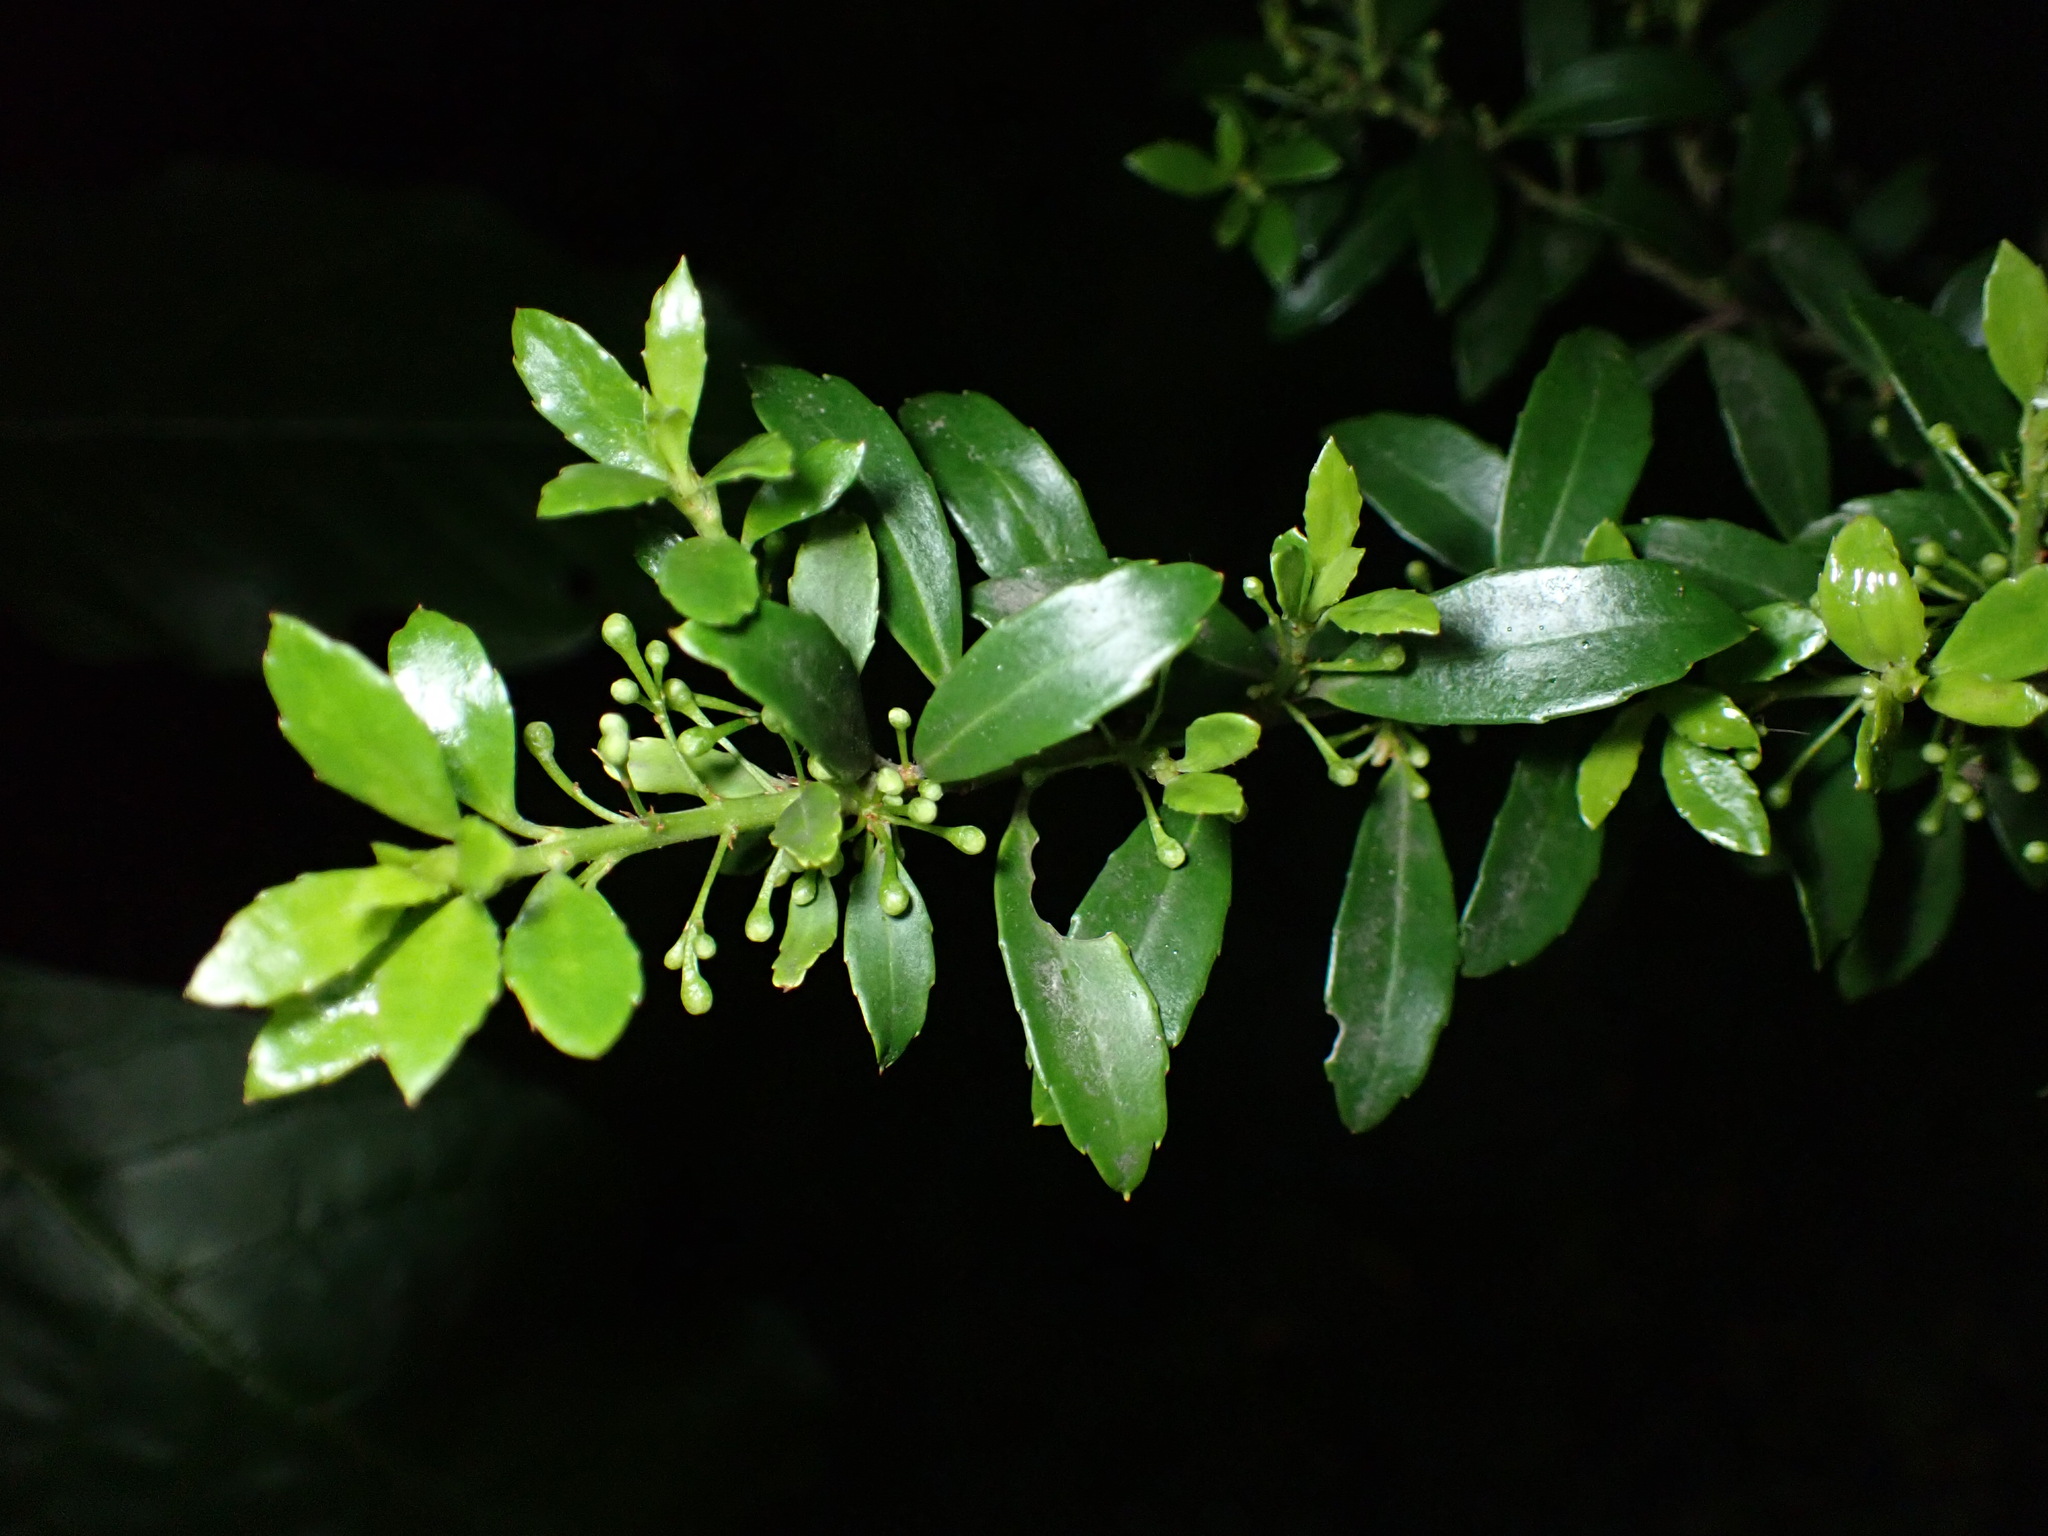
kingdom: Plantae
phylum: Tracheophyta
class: Magnoliopsida
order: Aquifoliales
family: Aquifoliaceae
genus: Ilex
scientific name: Ilex crenata
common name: Japanese holly
